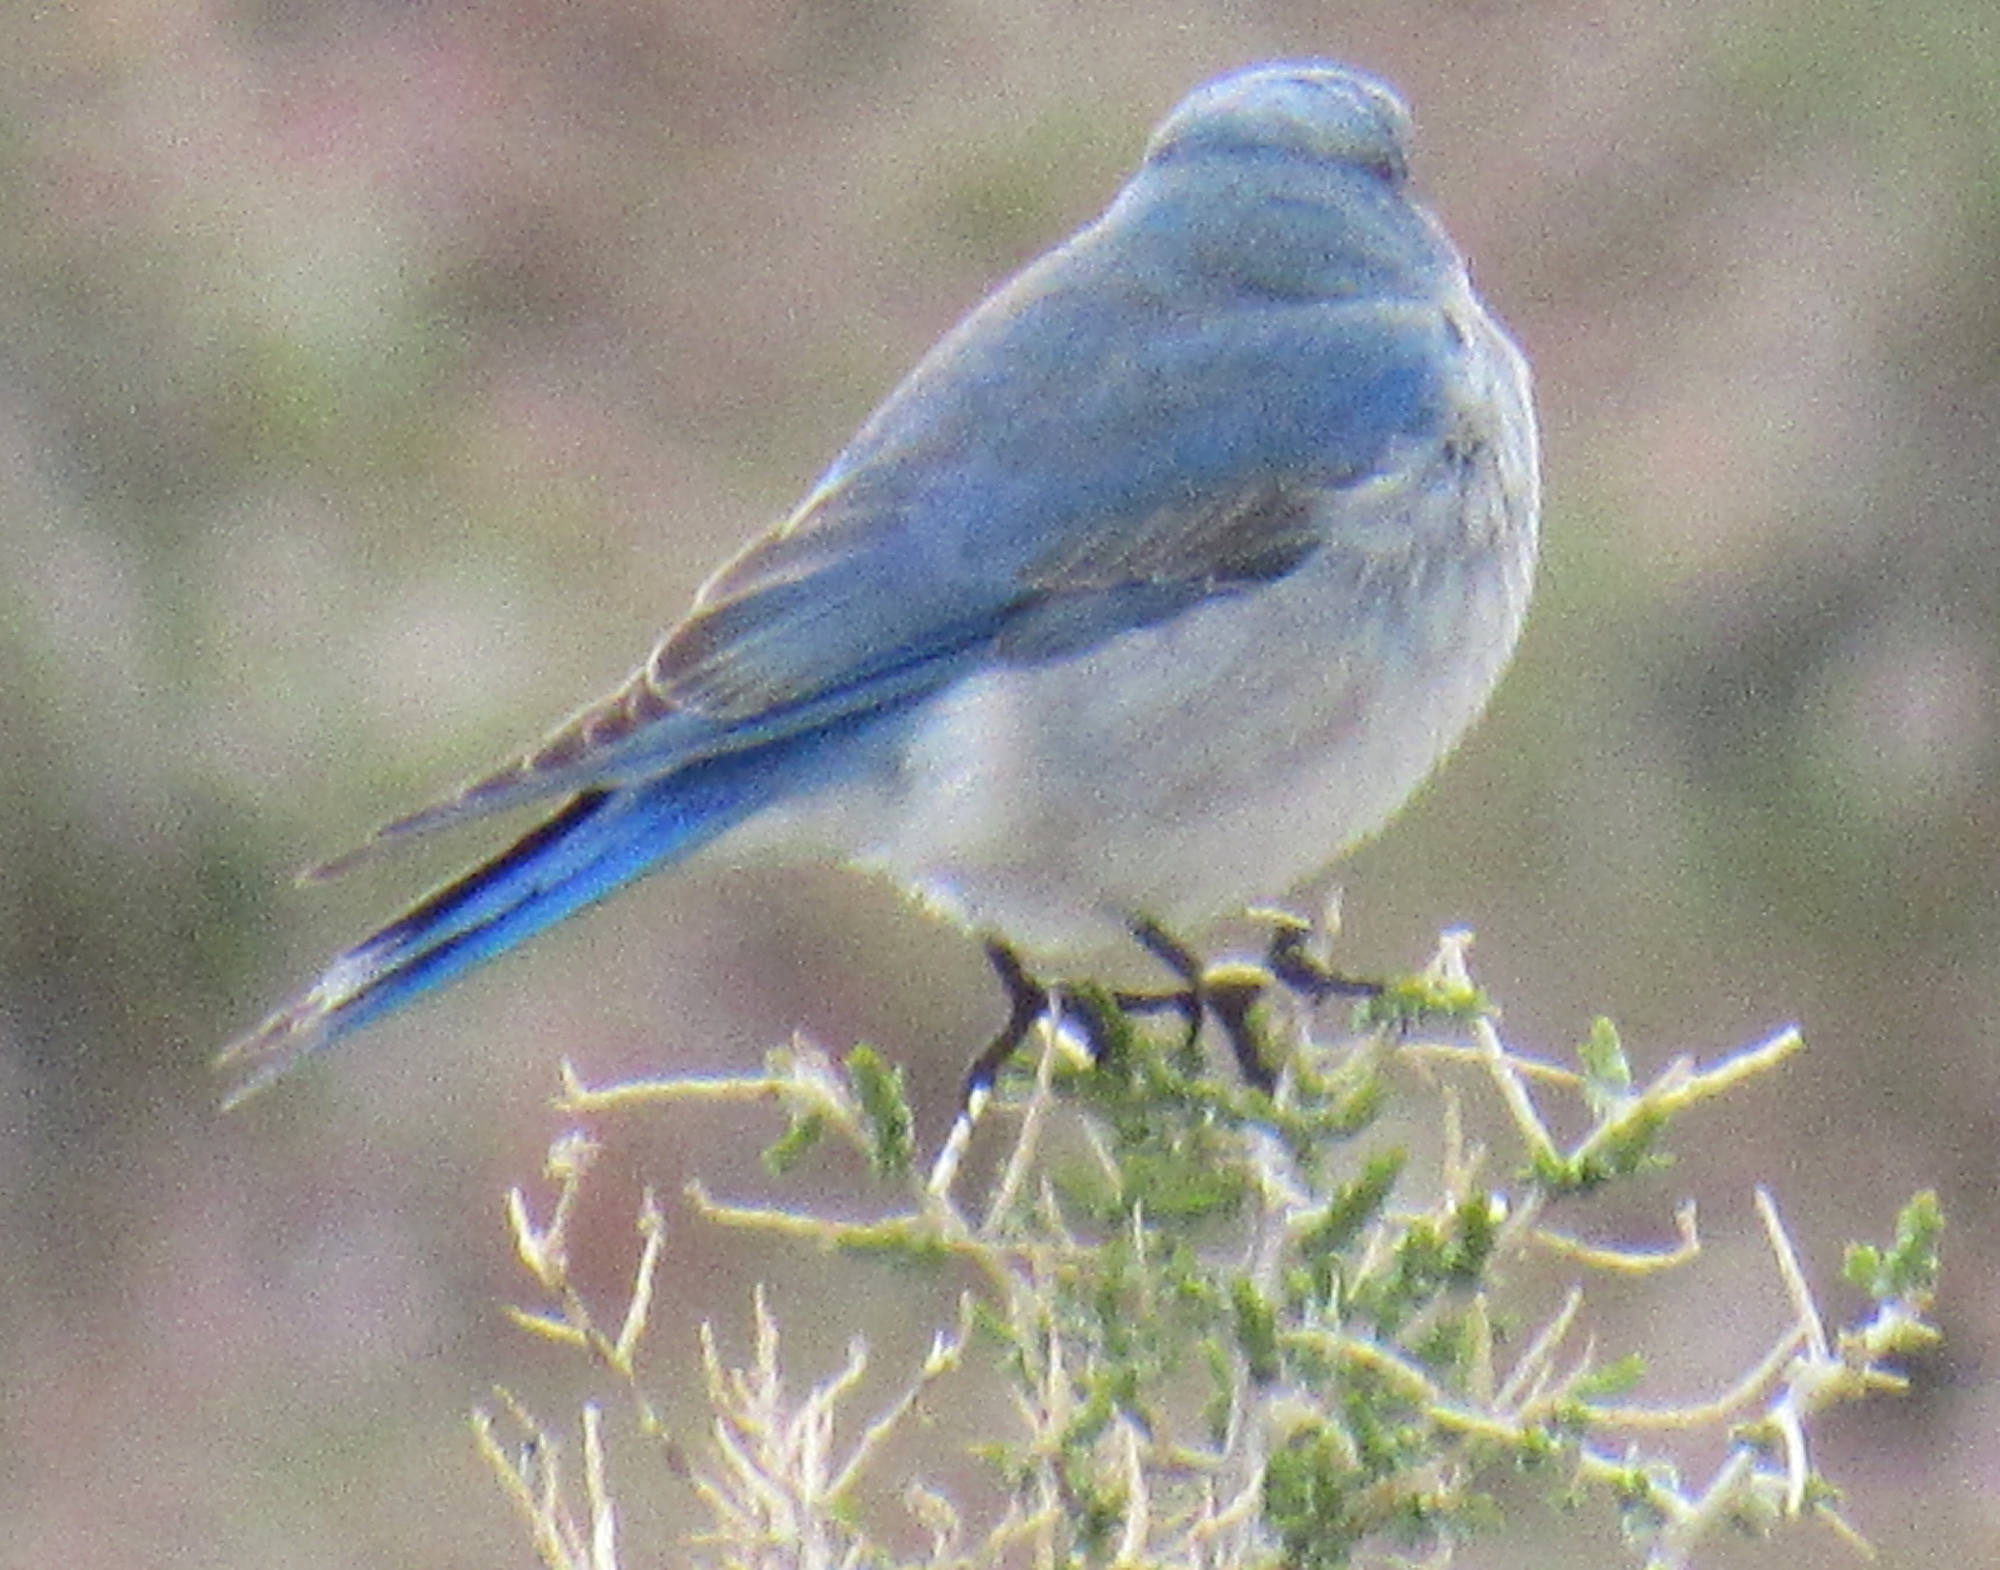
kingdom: Animalia
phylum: Chordata
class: Aves
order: Passeriformes
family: Turdidae
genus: Sialia
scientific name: Sialia currucoides
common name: Mountain bluebird
